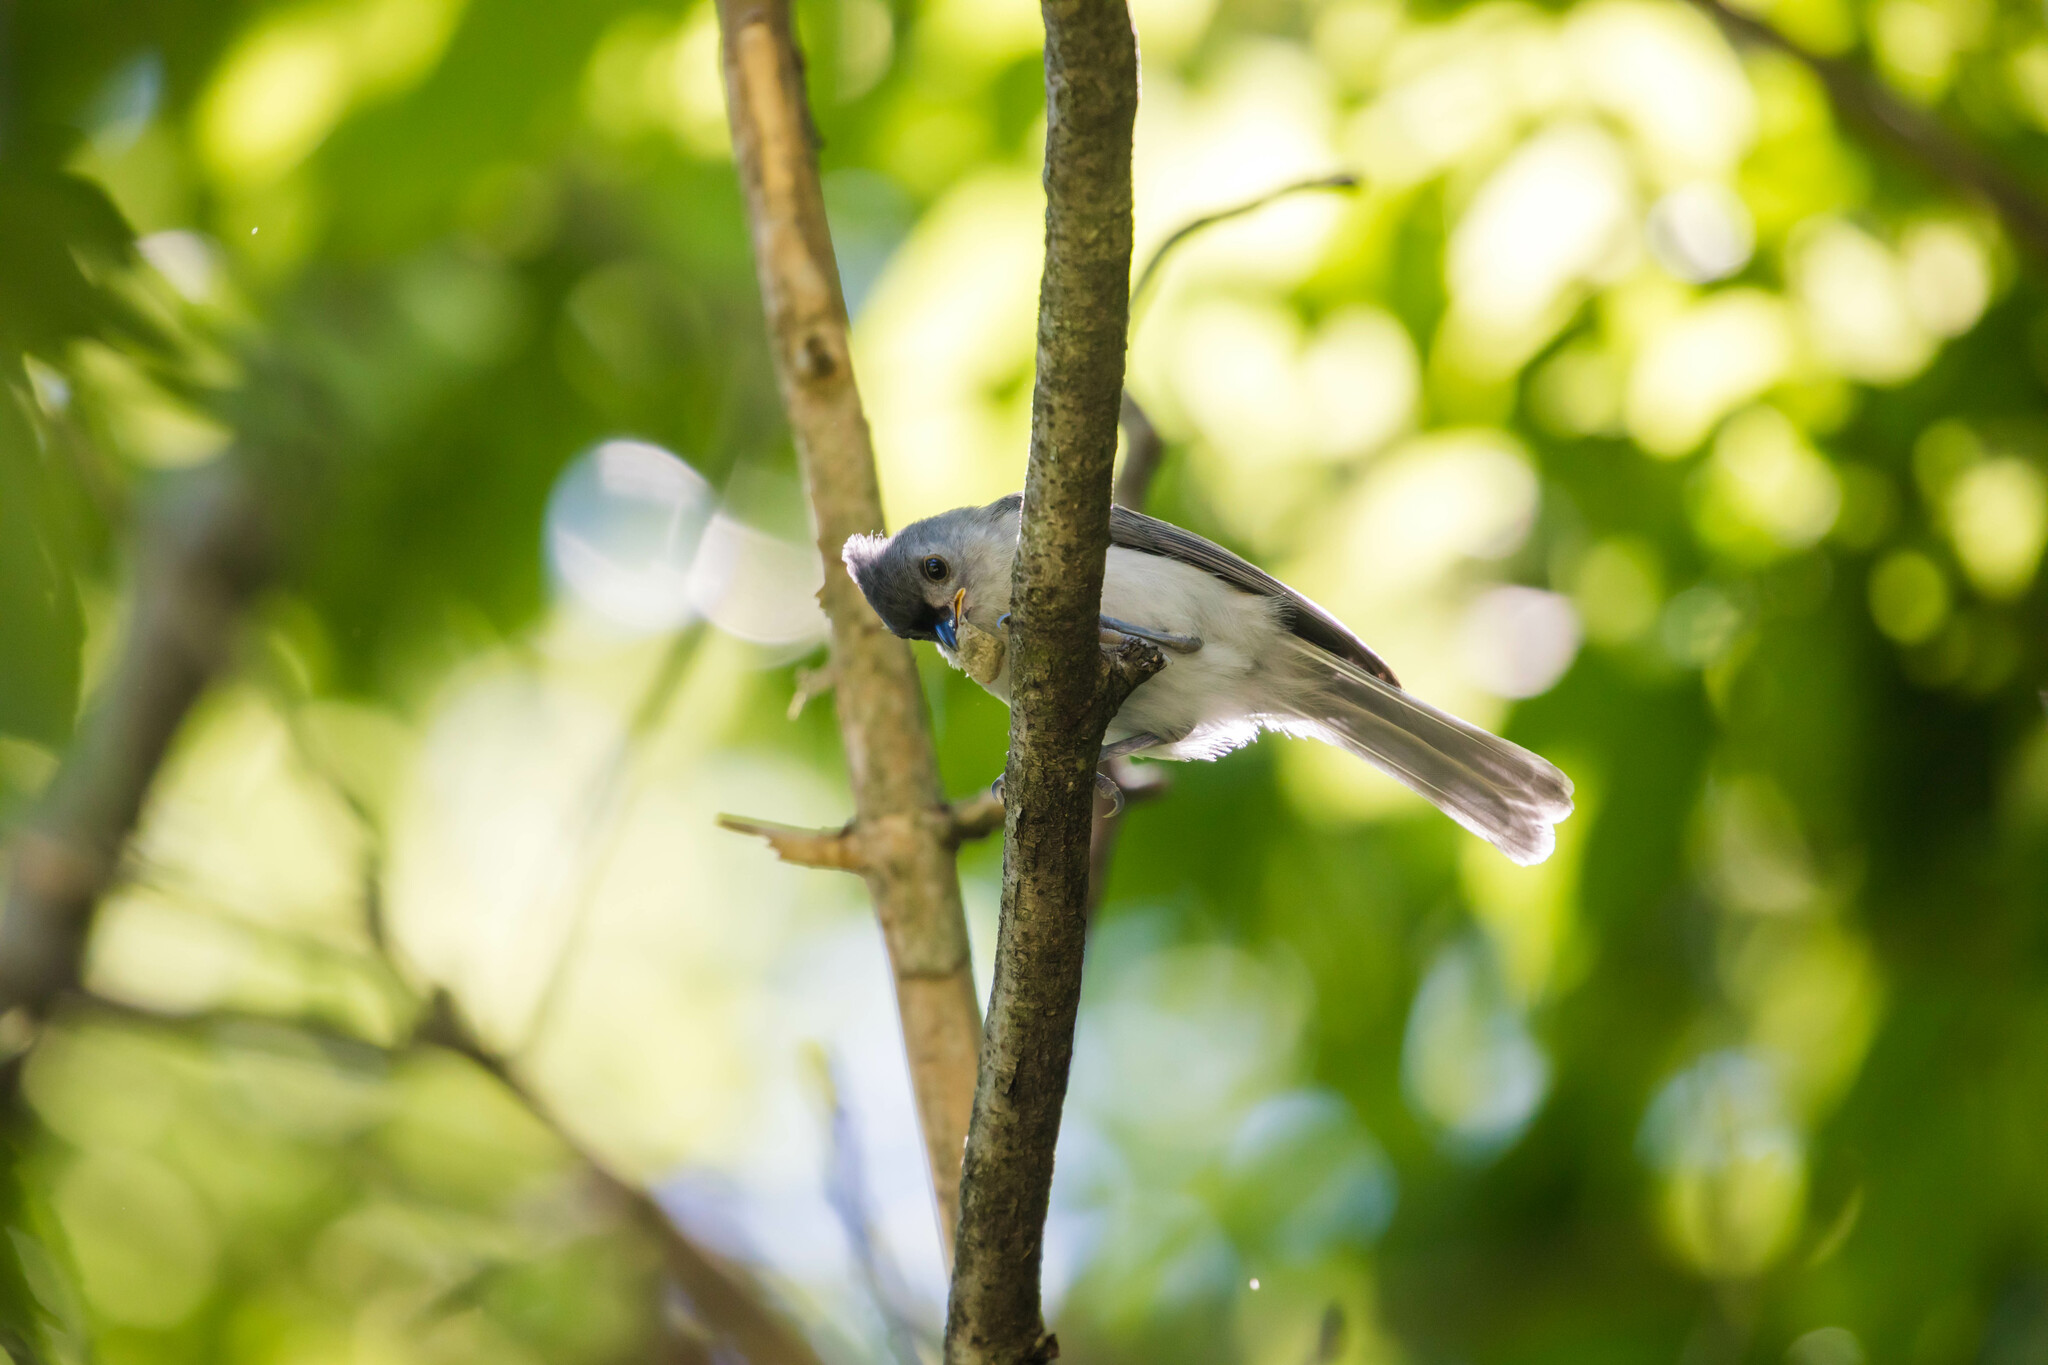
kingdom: Animalia
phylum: Chordata
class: Aves
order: Passeriformes
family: Paridae
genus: Baeolophus
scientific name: Baeolophus bicolor
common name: Tufted titmouse
